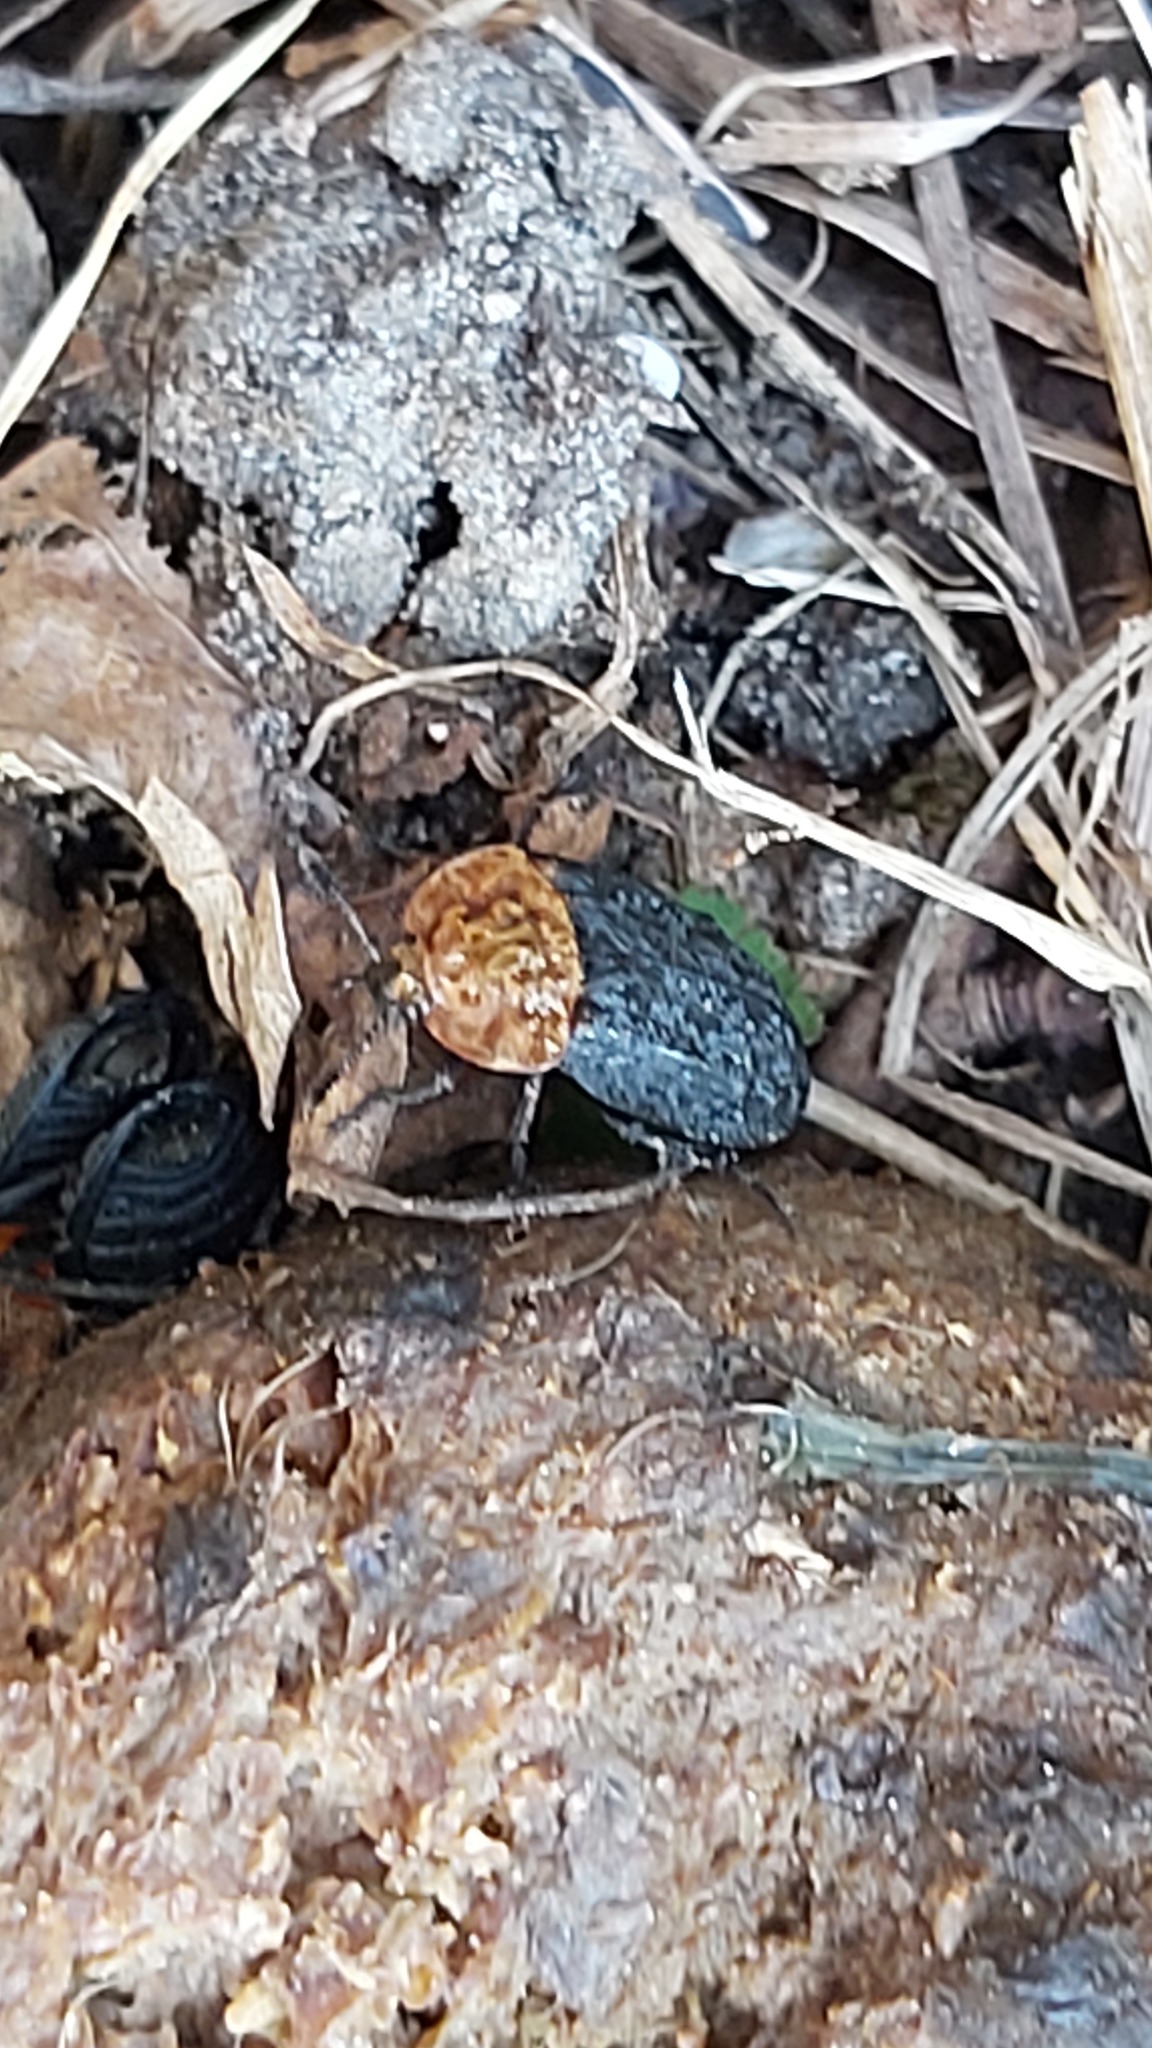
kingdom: Animalia
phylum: Arthropoda
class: Insecta
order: Coleoptera
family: Staphylinidae
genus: Oiceoptoma
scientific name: Oiceoptoma thoracicum
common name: Red-breasted carrion beetle
